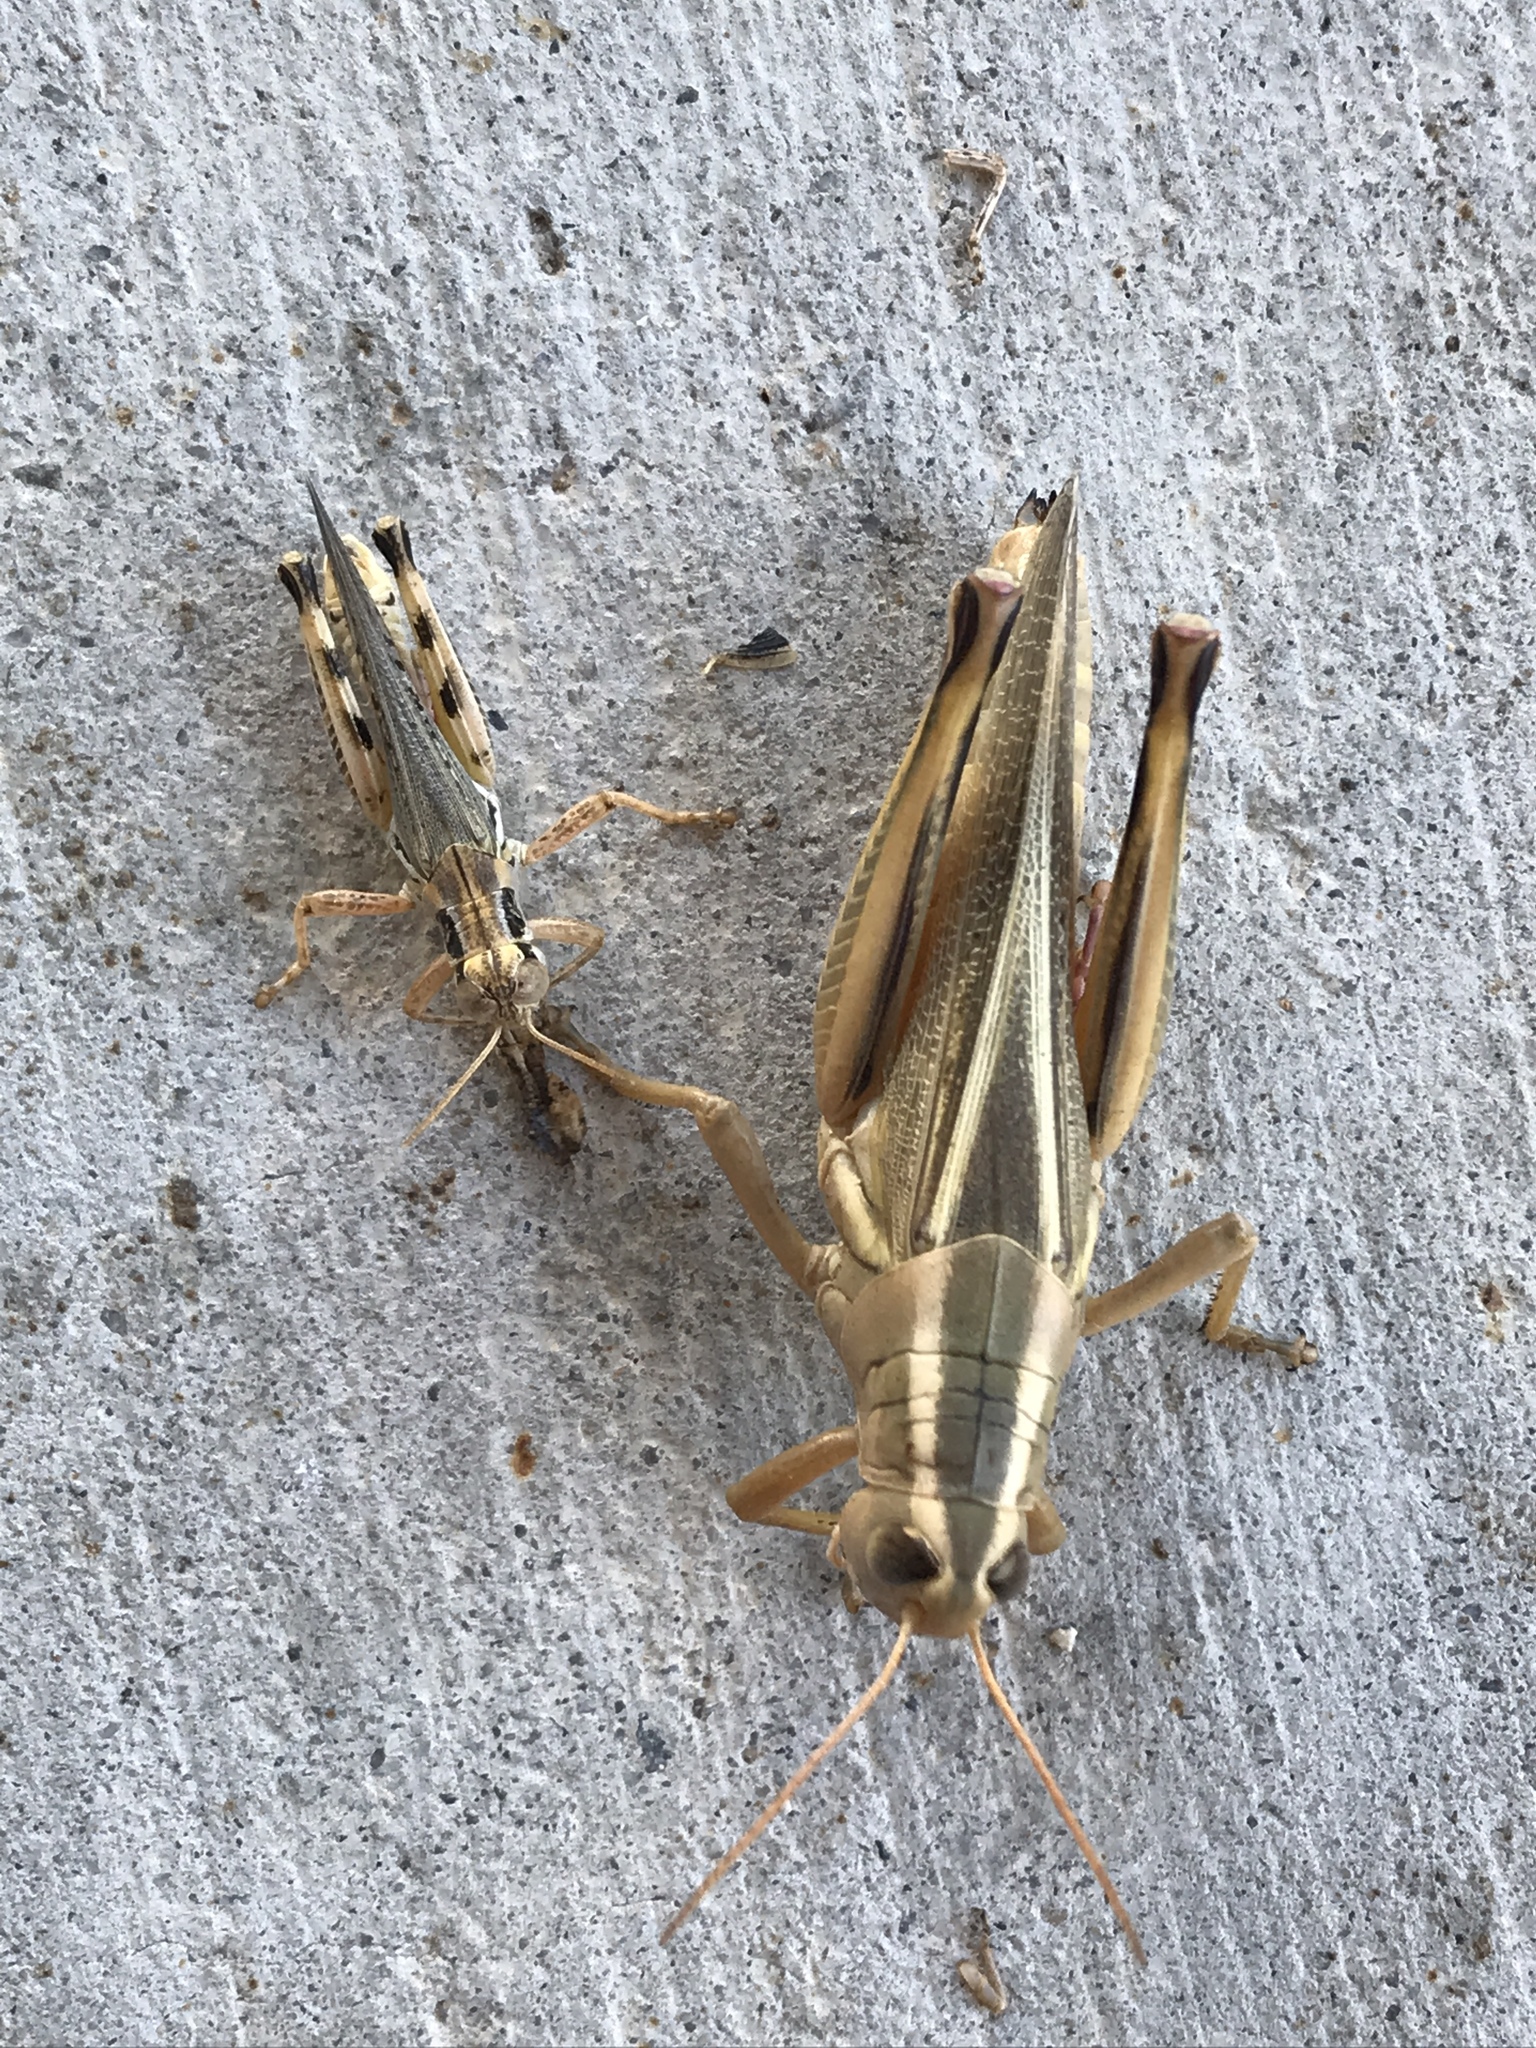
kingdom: Animalia
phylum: Arthropoda
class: Insecta
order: Orthoptera
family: Acrididae
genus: Melanoplus
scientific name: Melanoplus bivittatus
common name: Two-striped grasshopper
